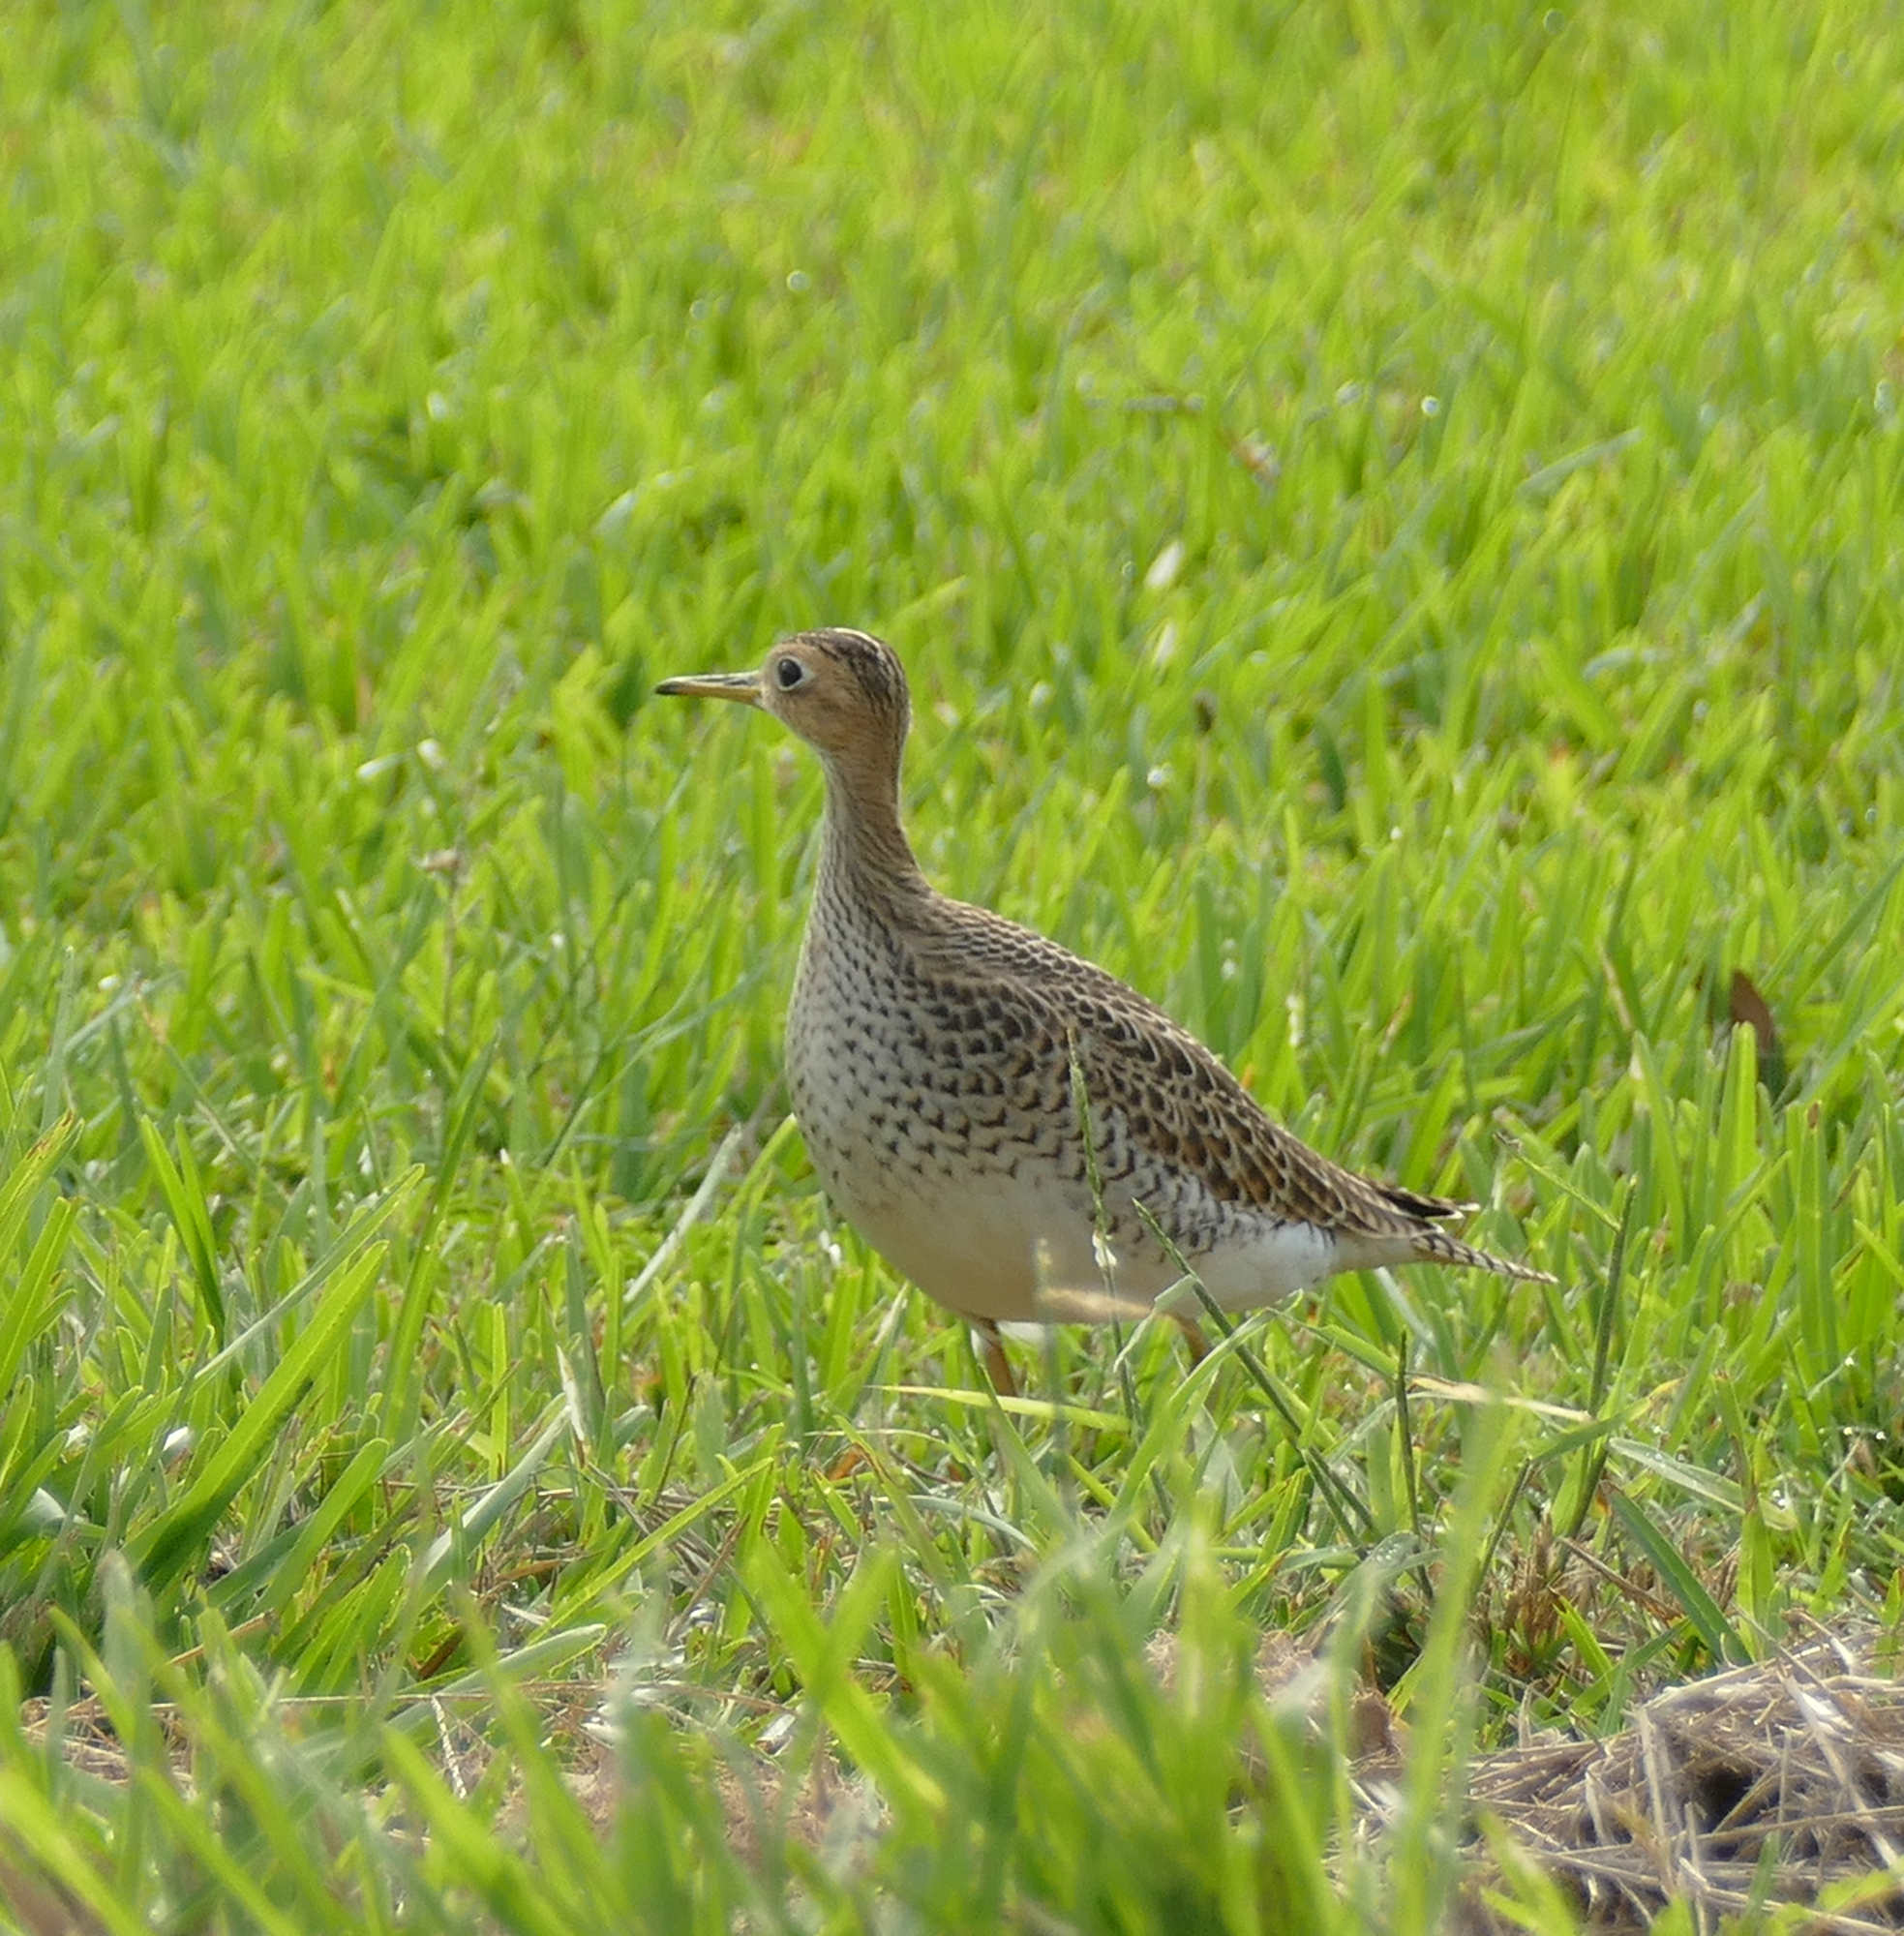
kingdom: Animalia
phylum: Chordata
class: Aves
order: Charadriiformes
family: Scolopacidae
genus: Bartramia
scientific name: Bartramia longicauda
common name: Upland sandpiper
